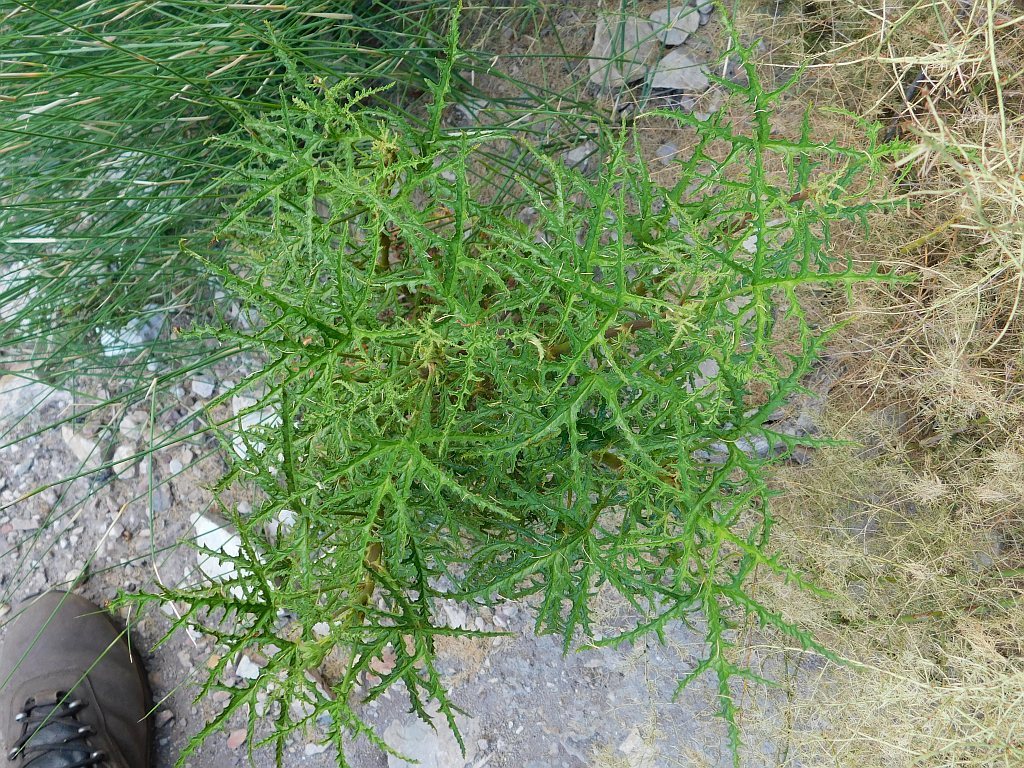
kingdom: Plantae
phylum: Tracheophyta
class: Magnoliopsida
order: Geraniales
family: Geraniaceae
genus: Pelargonium
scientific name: Pelargonium glutinosum
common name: Pheasant-foot geranium
